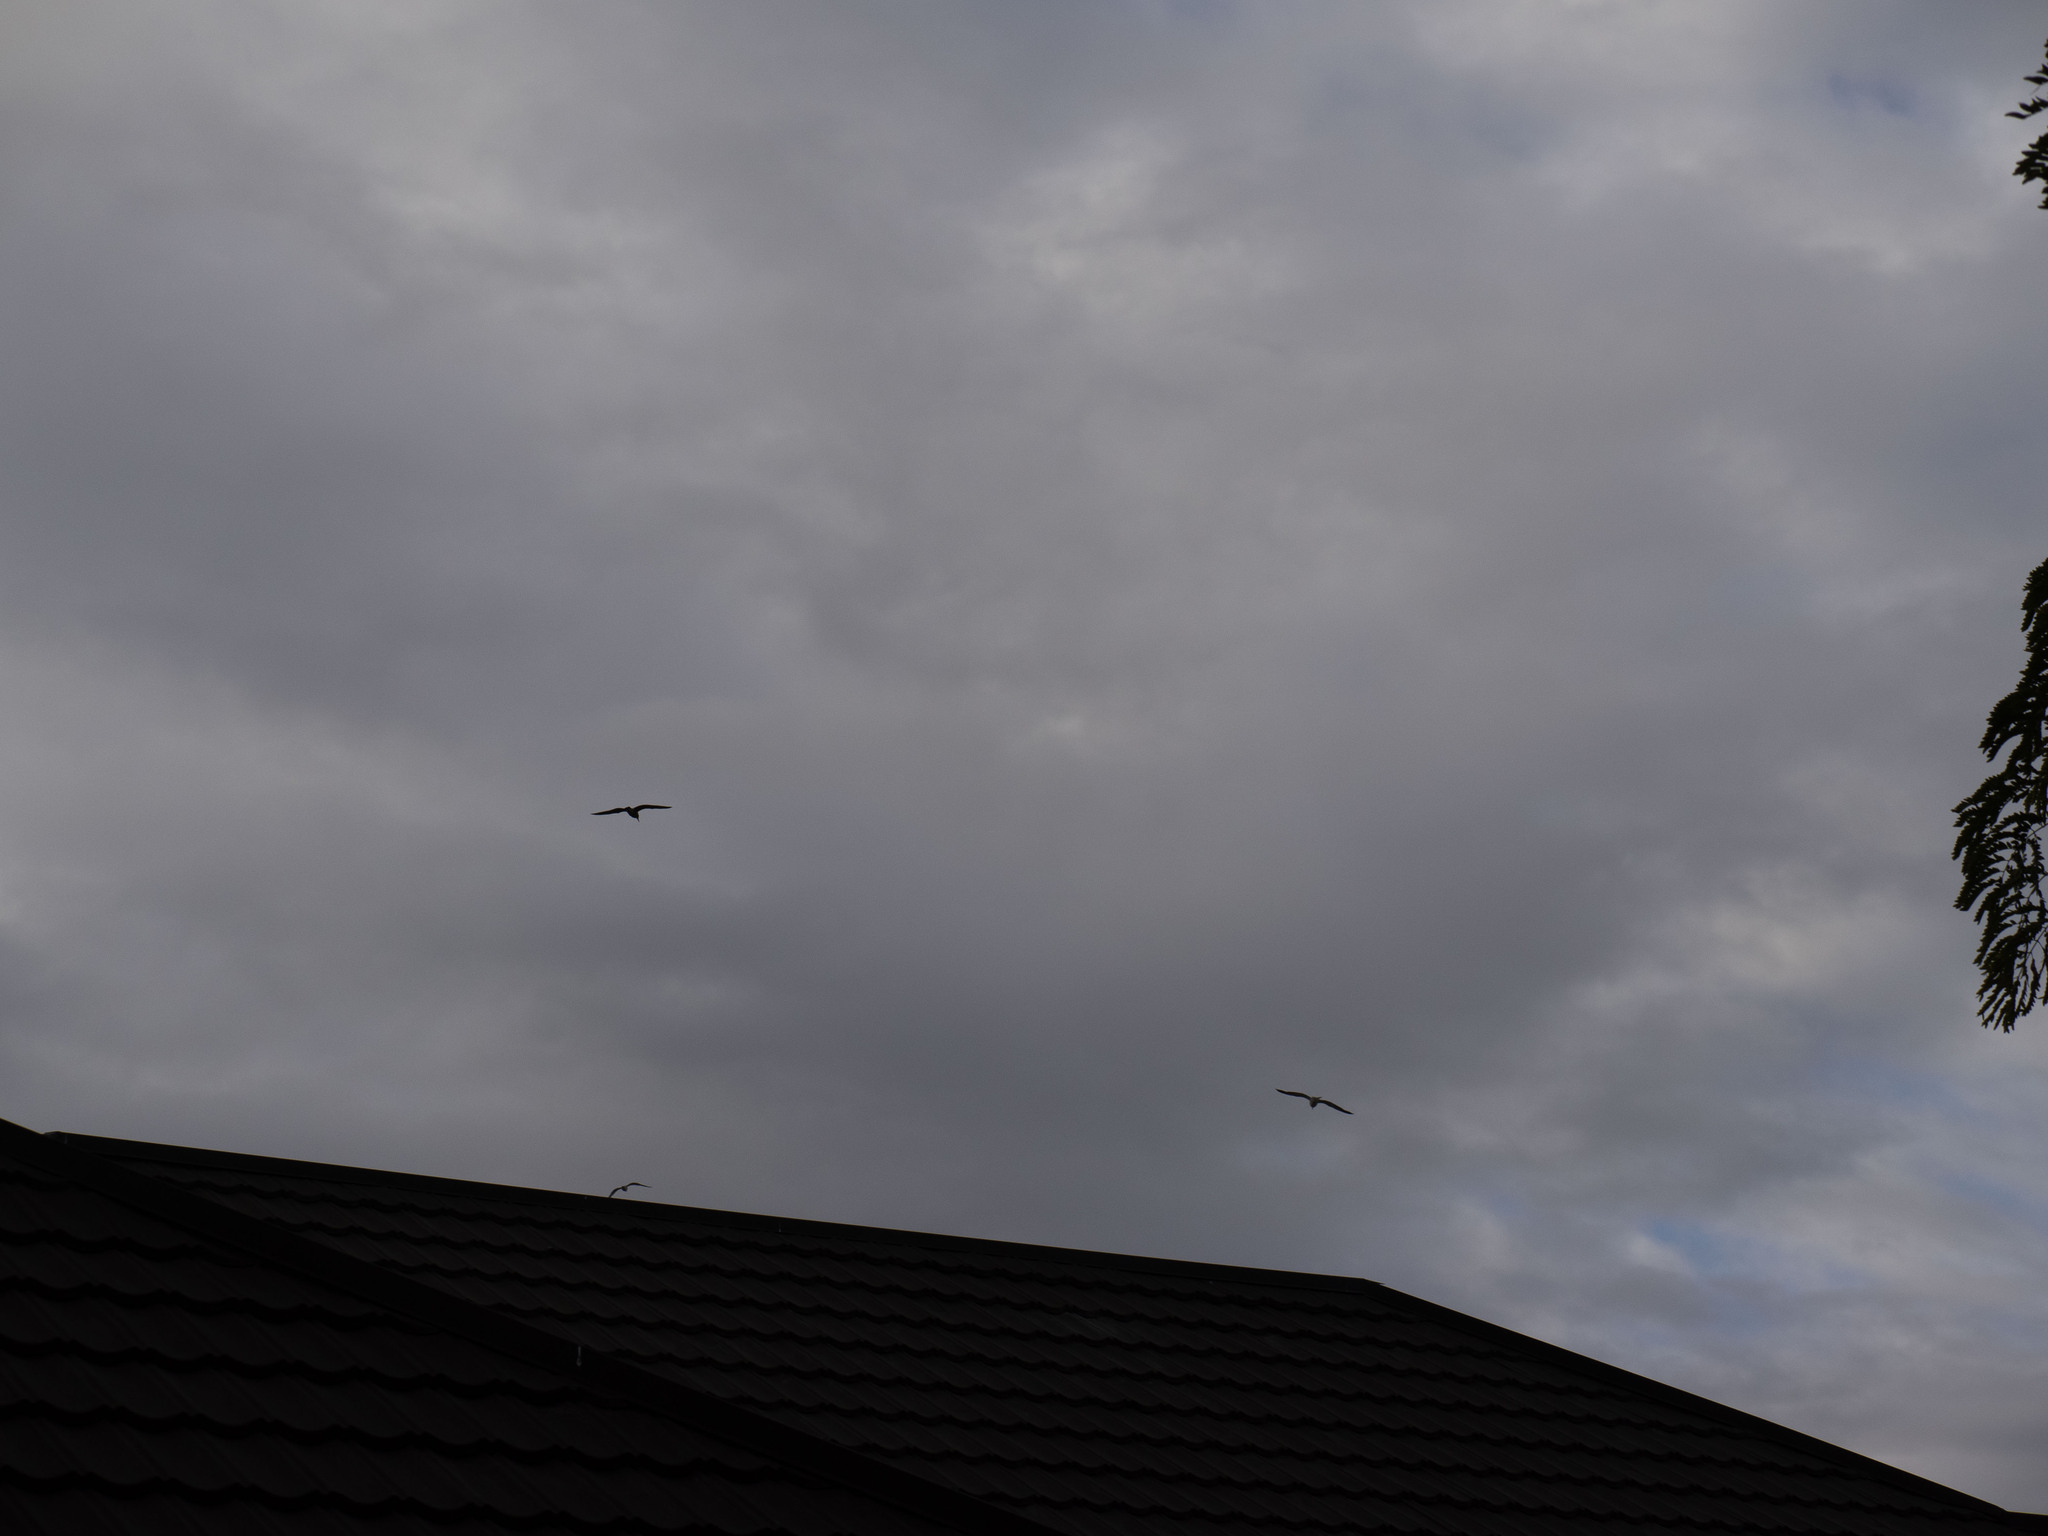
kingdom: Animalia
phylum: Chordata
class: Aves
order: Charadriiformes
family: Laridae
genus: Larus
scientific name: Larus dominicanus
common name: Kelp gull
